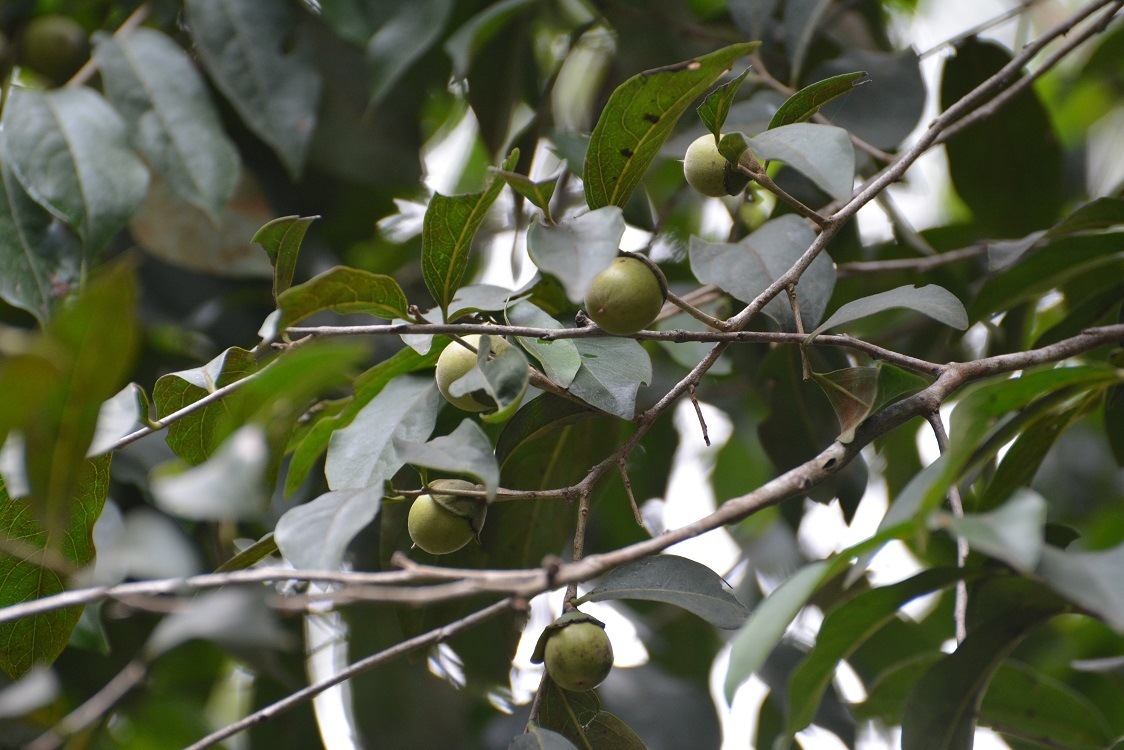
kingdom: Plantae
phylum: Tracheophyta
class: Magnoliopsida
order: Ericales
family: Ebenaceae
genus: Diospyros
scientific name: Diospyros salicifolia
